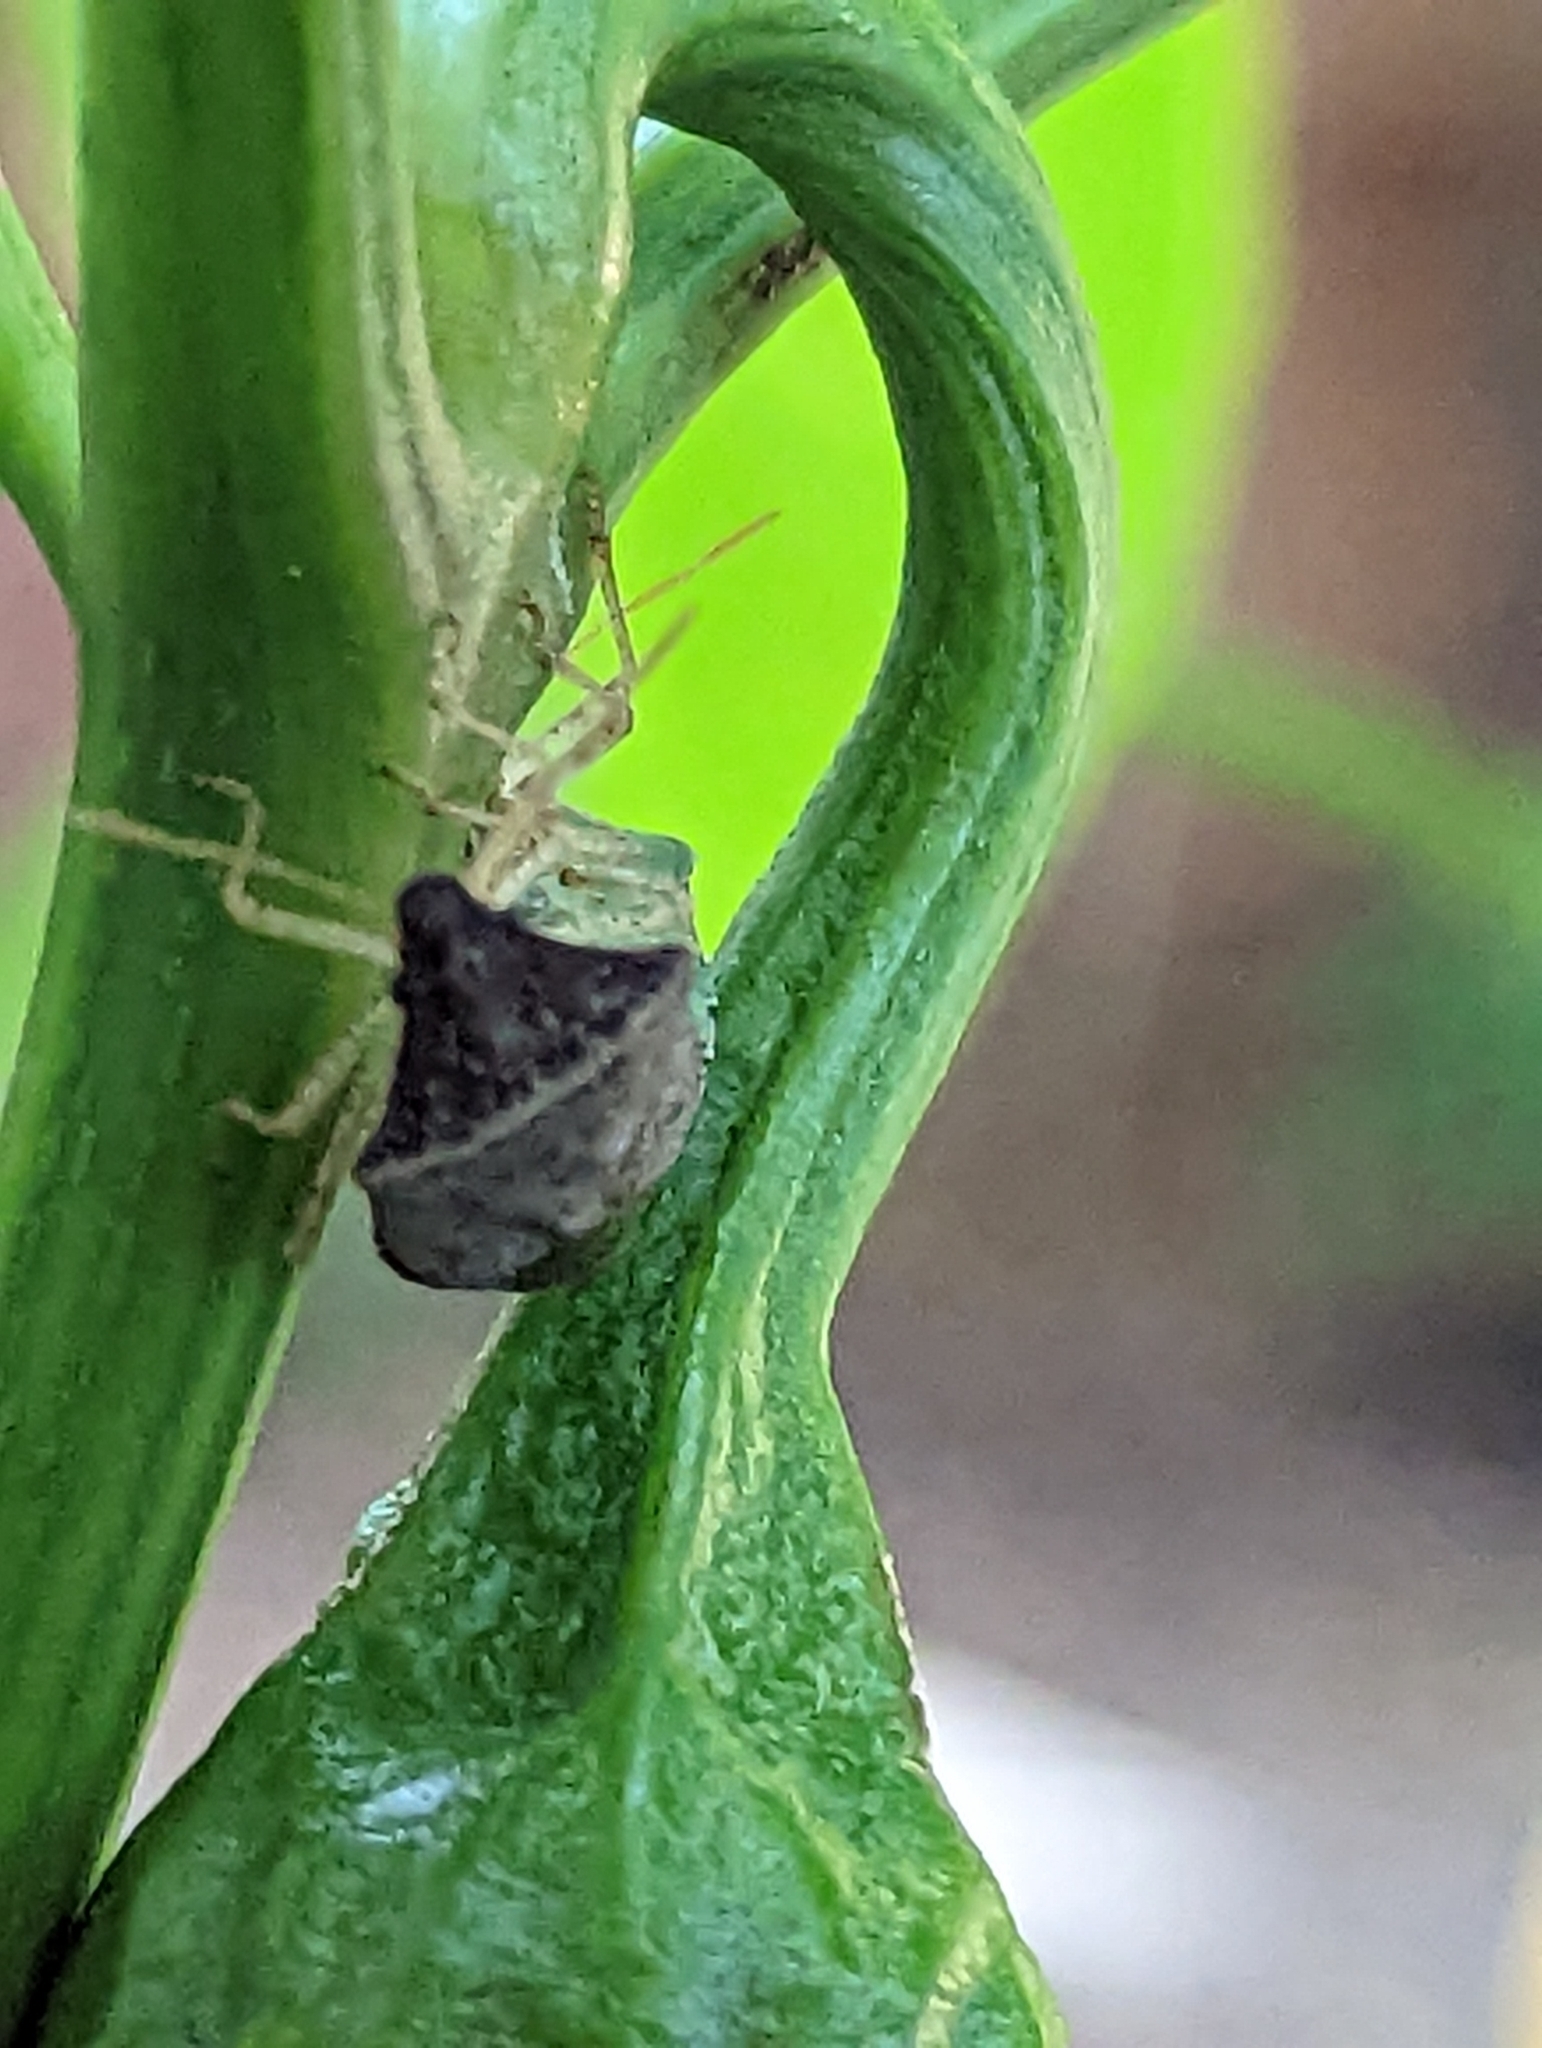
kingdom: Animalia
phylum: Arthropoda
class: Insecta
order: Hemiptera
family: Pentatomidae
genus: Euschistus
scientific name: Euschistus obscurus
